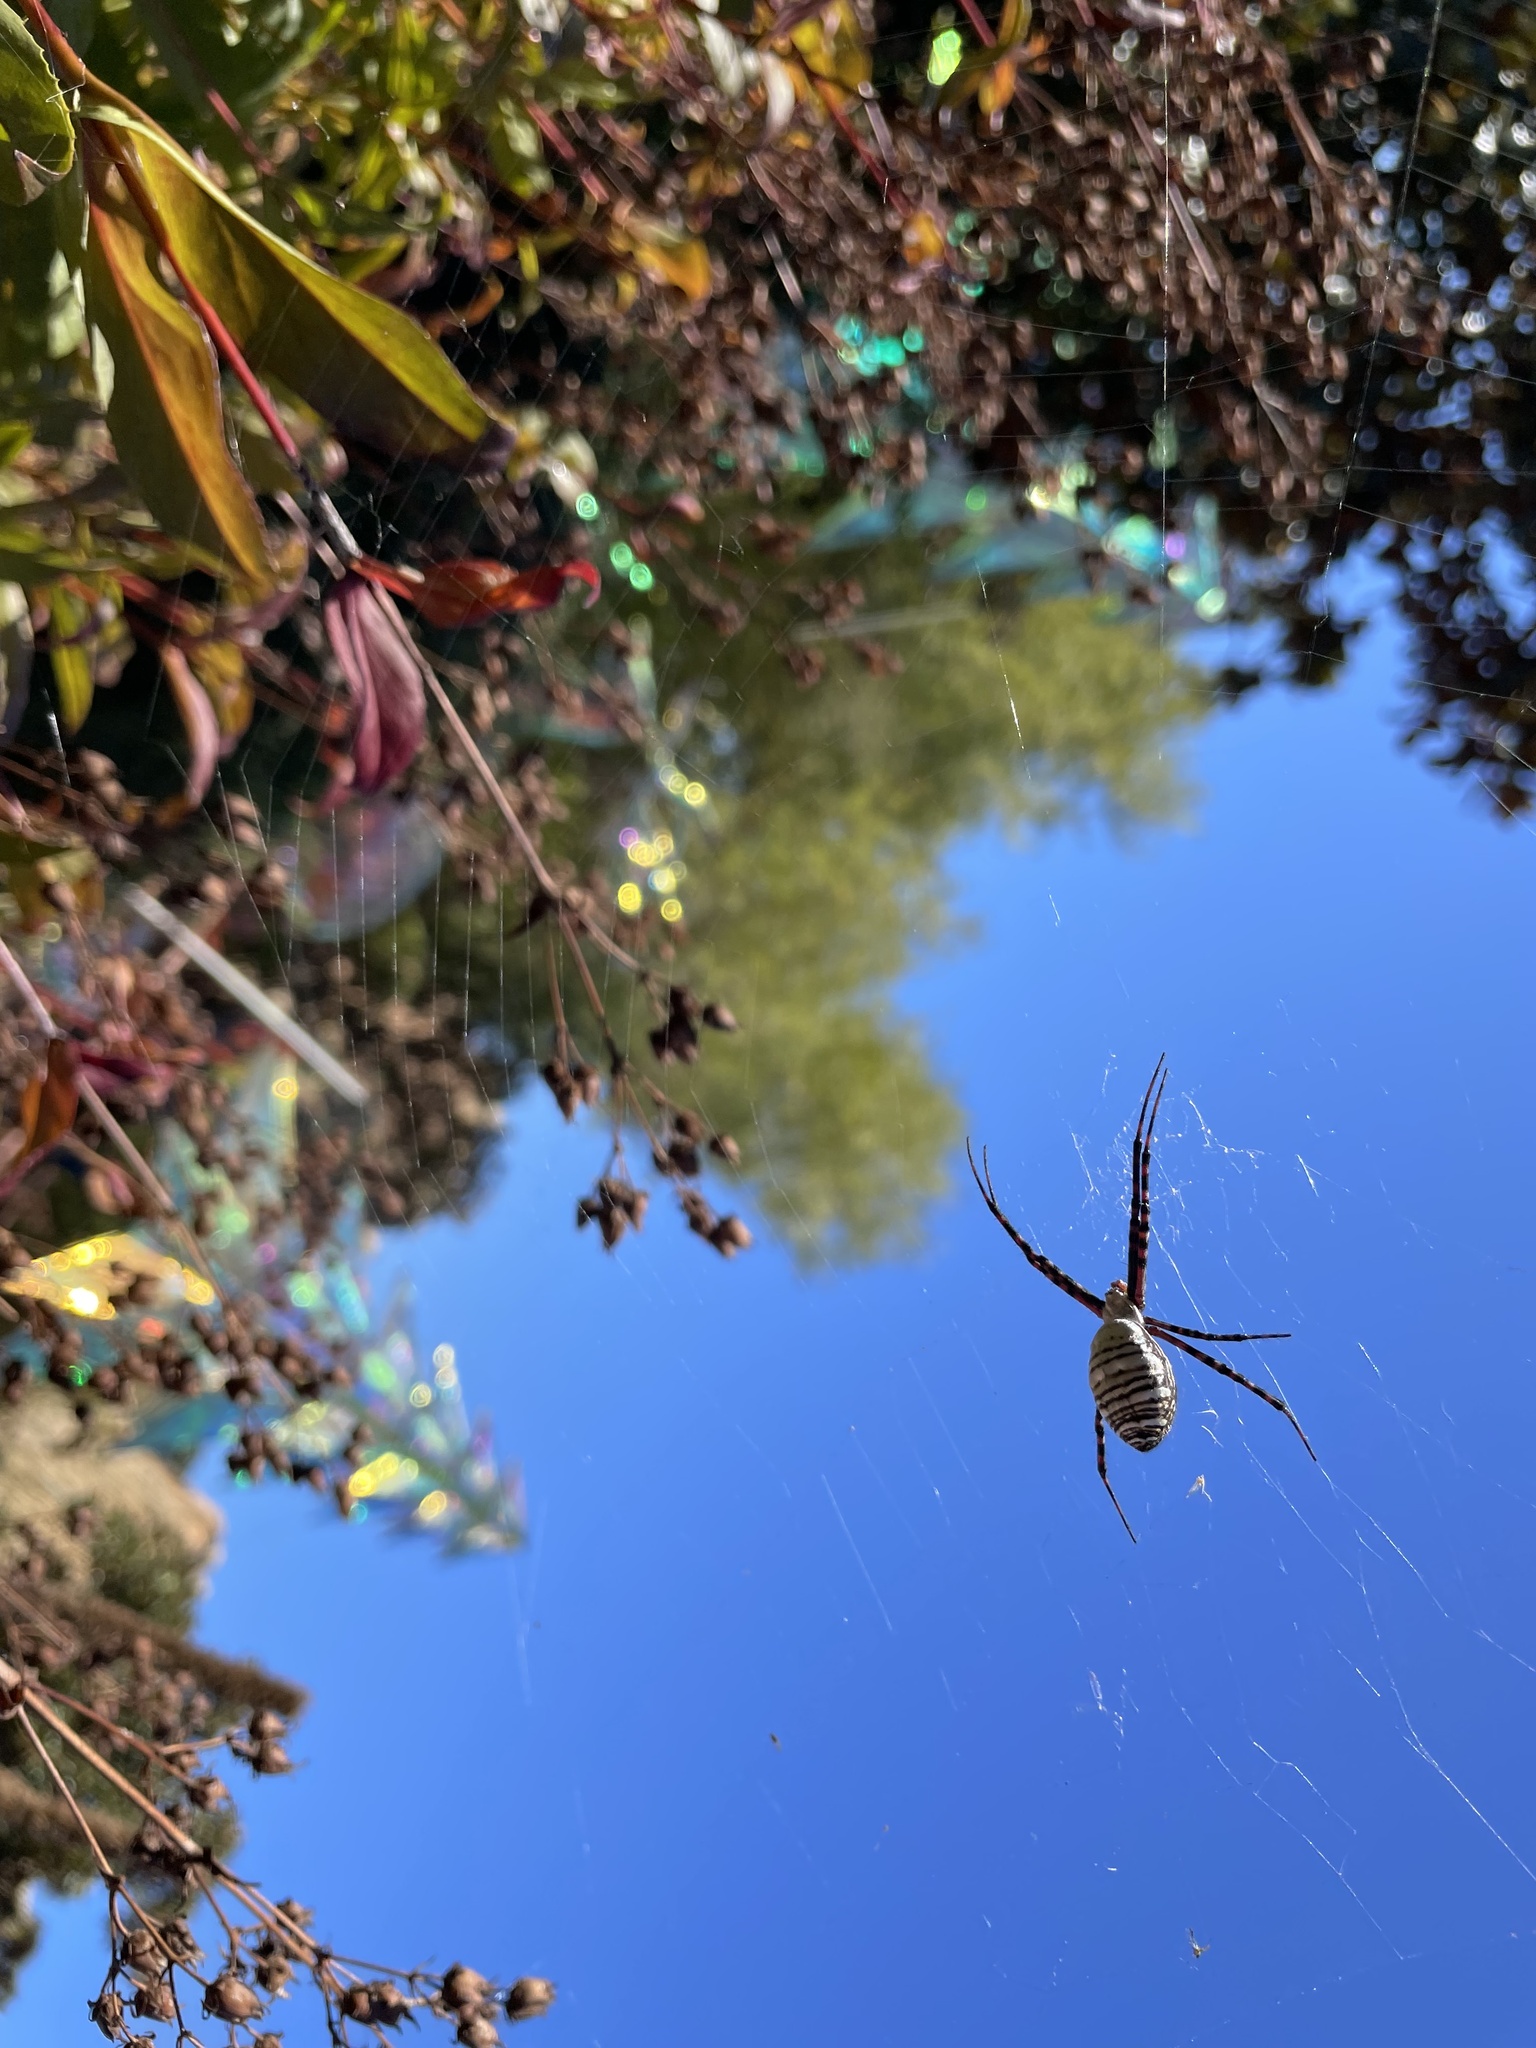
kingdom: Animalia
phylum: Arthropoda
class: Arachnida
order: Araneae
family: Araneidae
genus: Argiope
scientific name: Argiope trifasciata
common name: Banded garden spider
